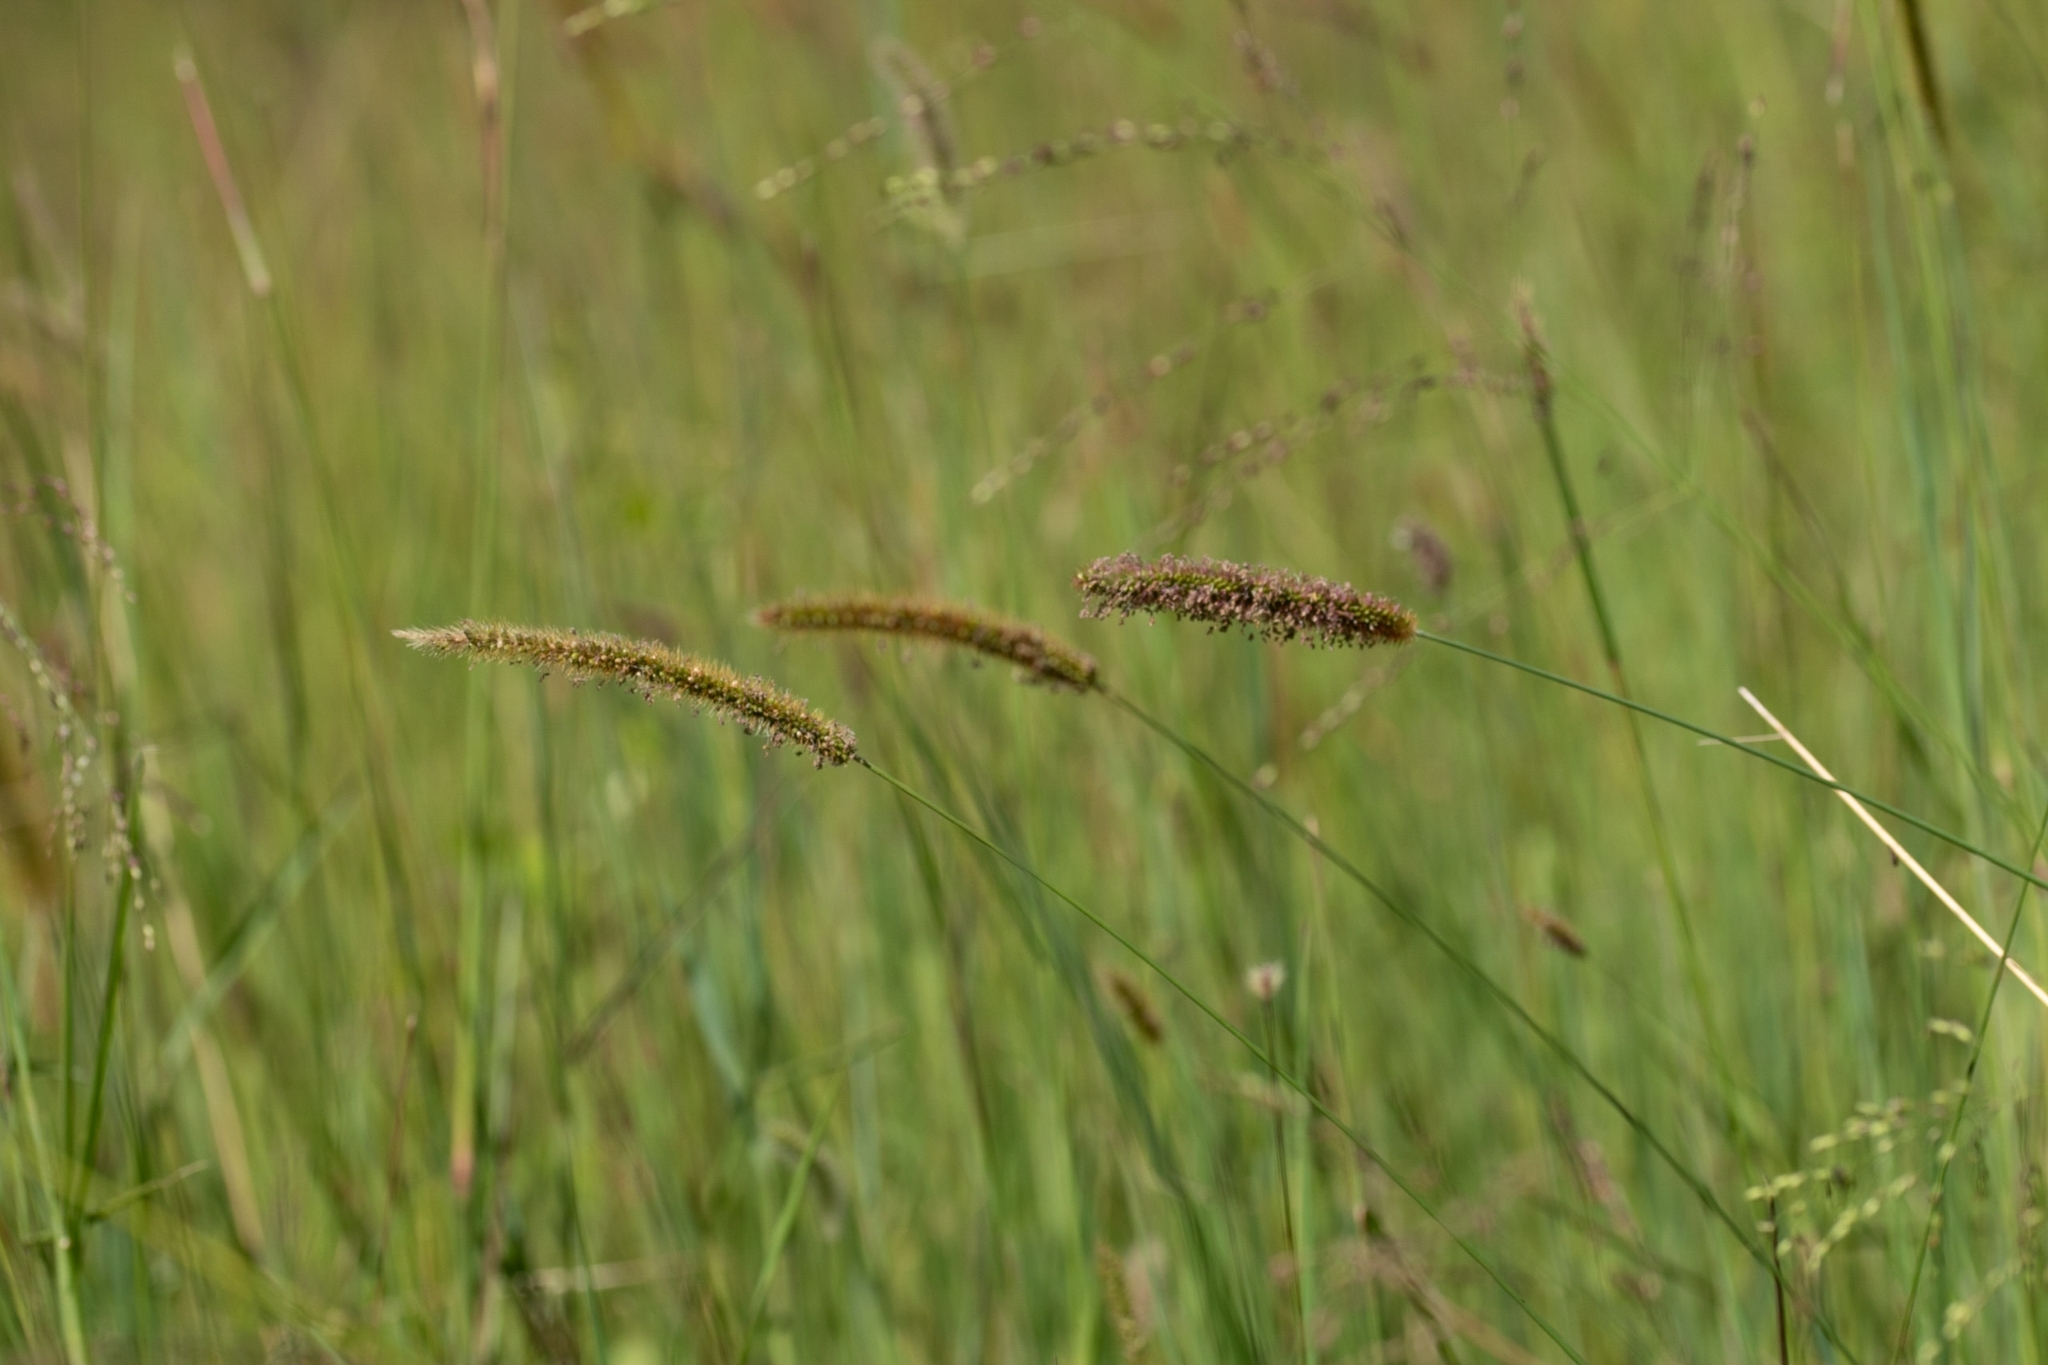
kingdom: Plantae
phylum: Tracheophyta
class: Liliopsida
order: Poales
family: Poaceae
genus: Setaria
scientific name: Setaria parviflora
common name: Knotroot bristle-grass
